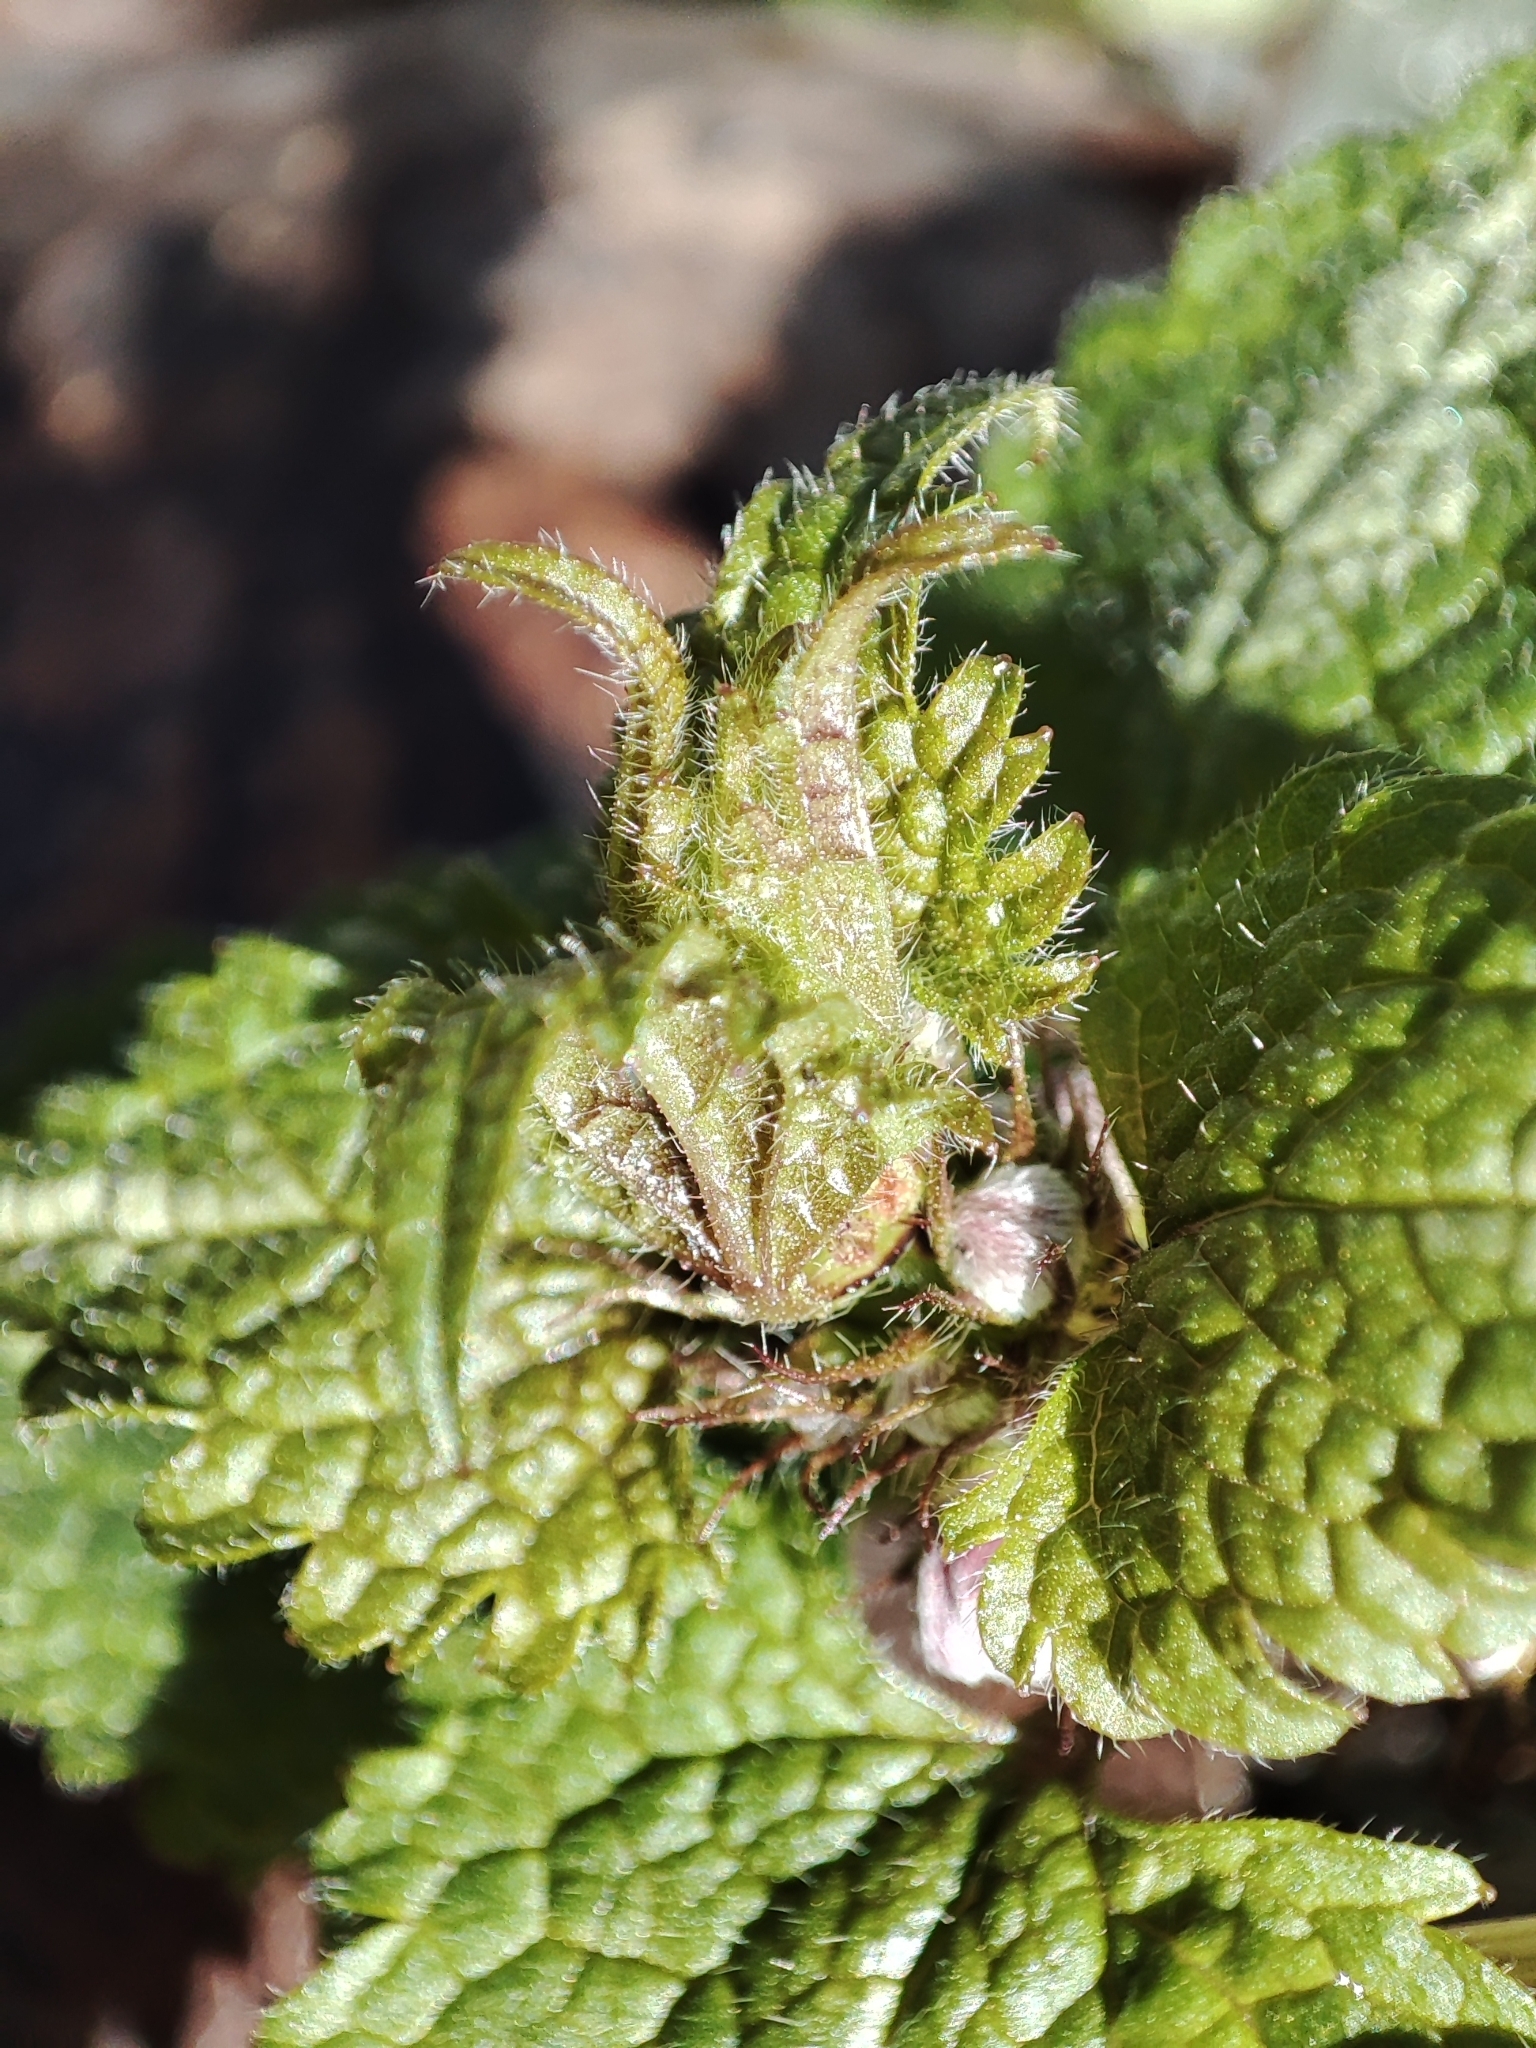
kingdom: Plantae
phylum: Tracheophyta
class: Magnoliopsida
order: Lamiales
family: Lamiaceae
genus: Lamium
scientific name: Lamium maculatum
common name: Spotted dead-nettle
